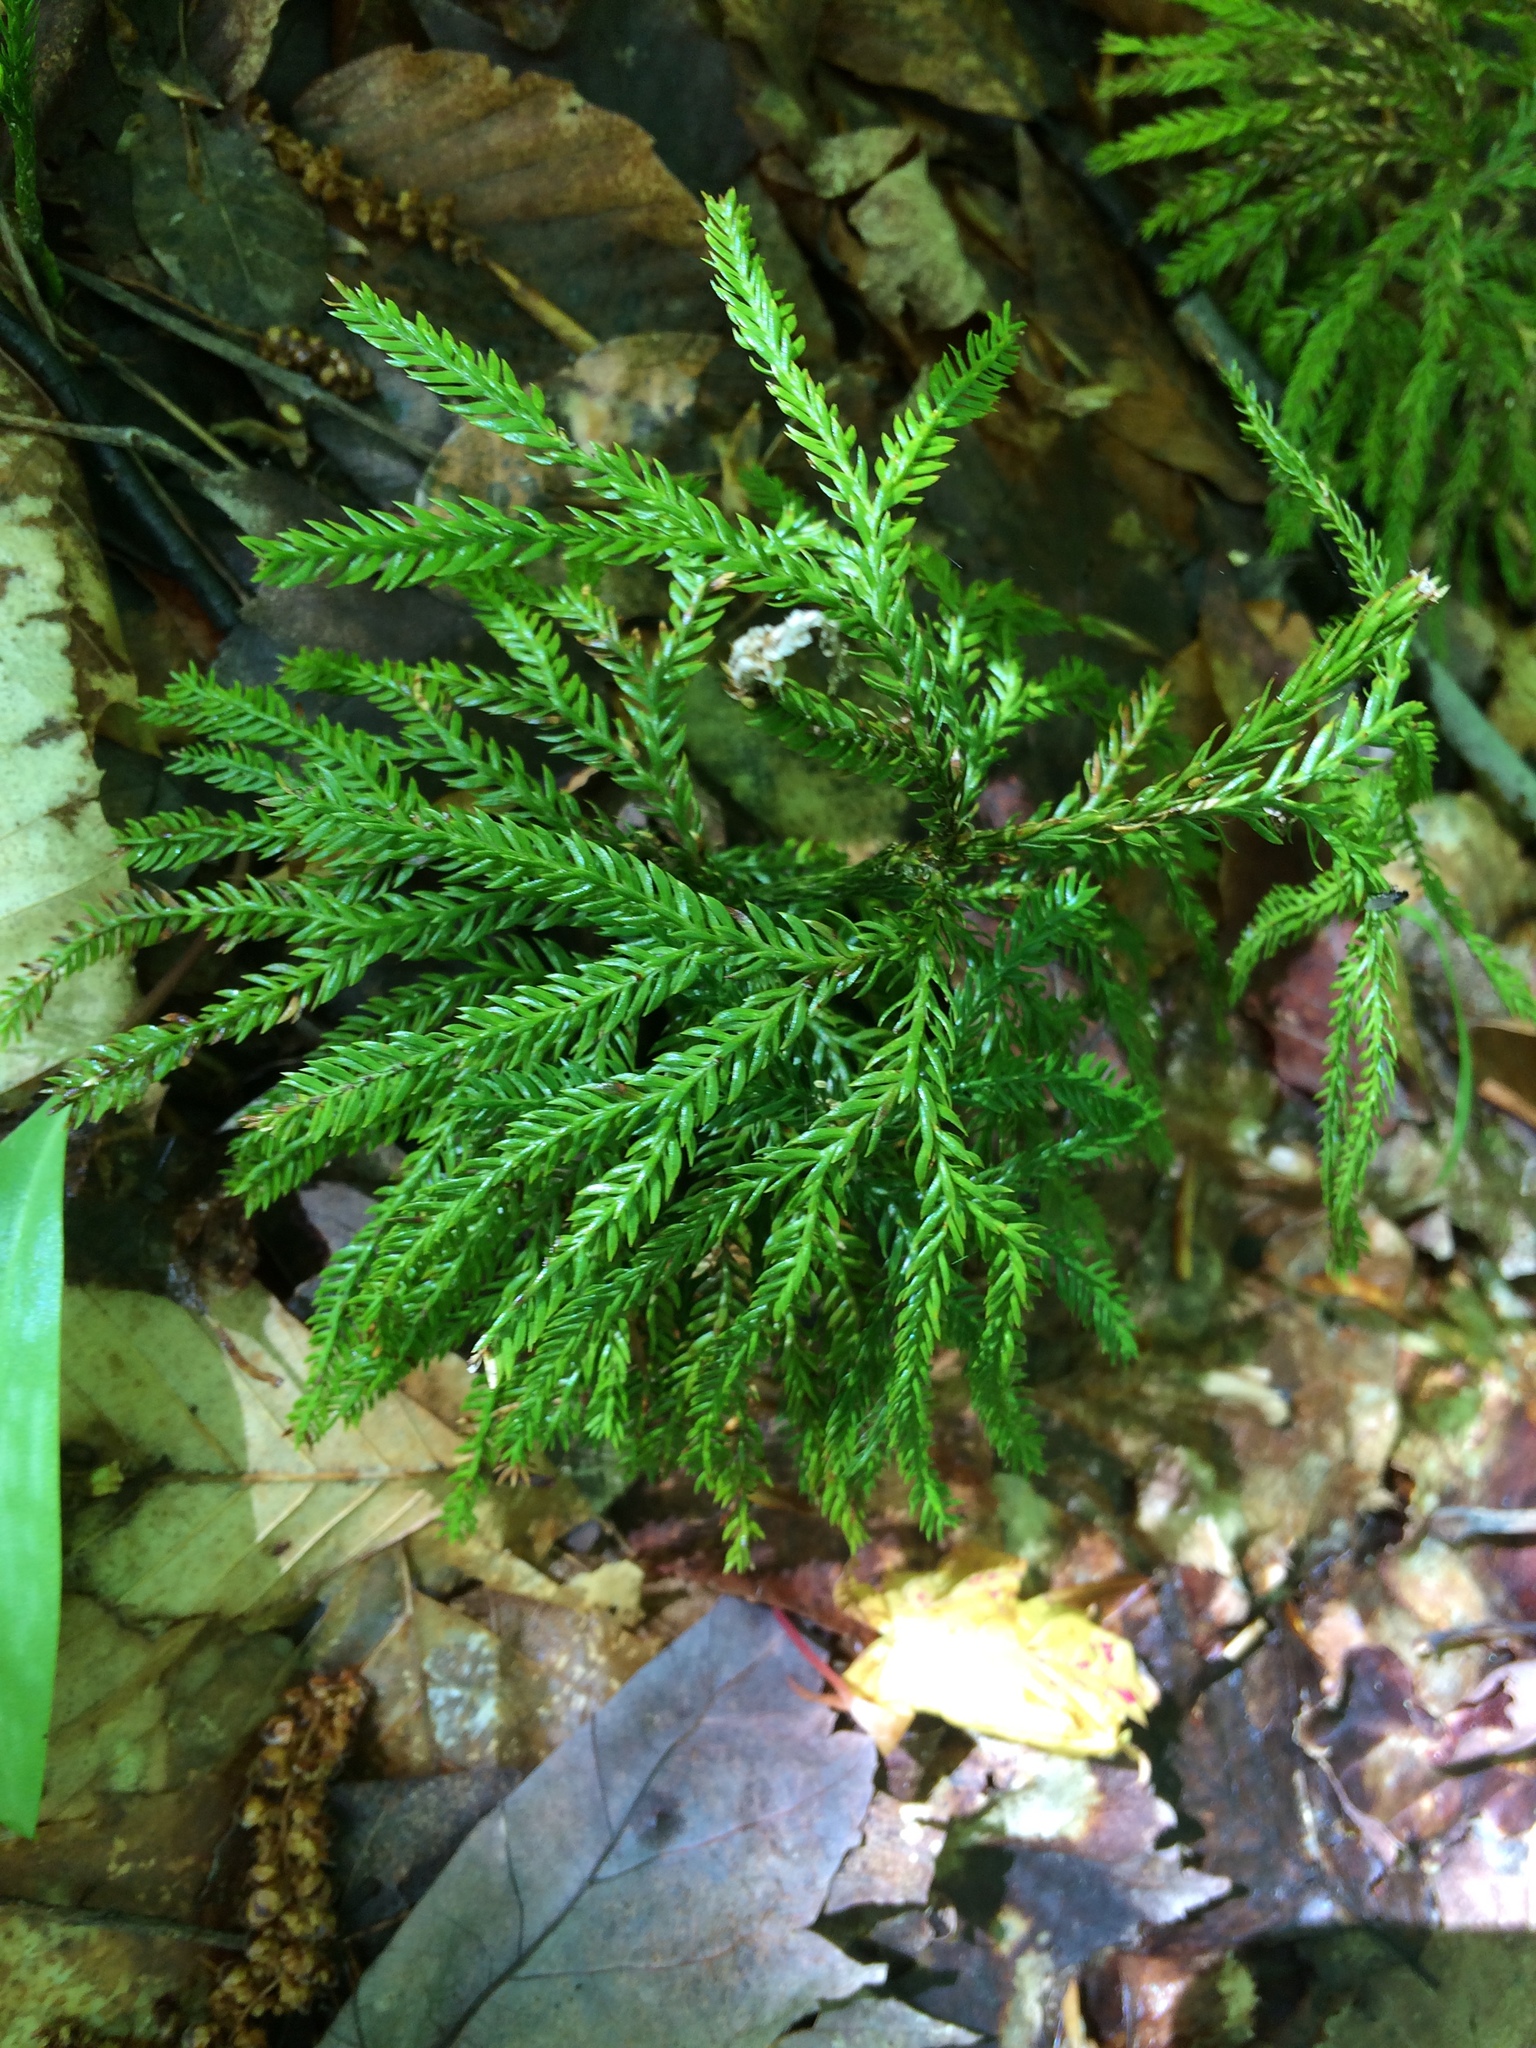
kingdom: Plantae
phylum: Tracheophyta
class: Lycopodiopsida
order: Lycopodiales
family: Lycopodiaceae
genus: Dendrolycopodium
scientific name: Dendrolycopodium obscurum
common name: Common ground-pine
